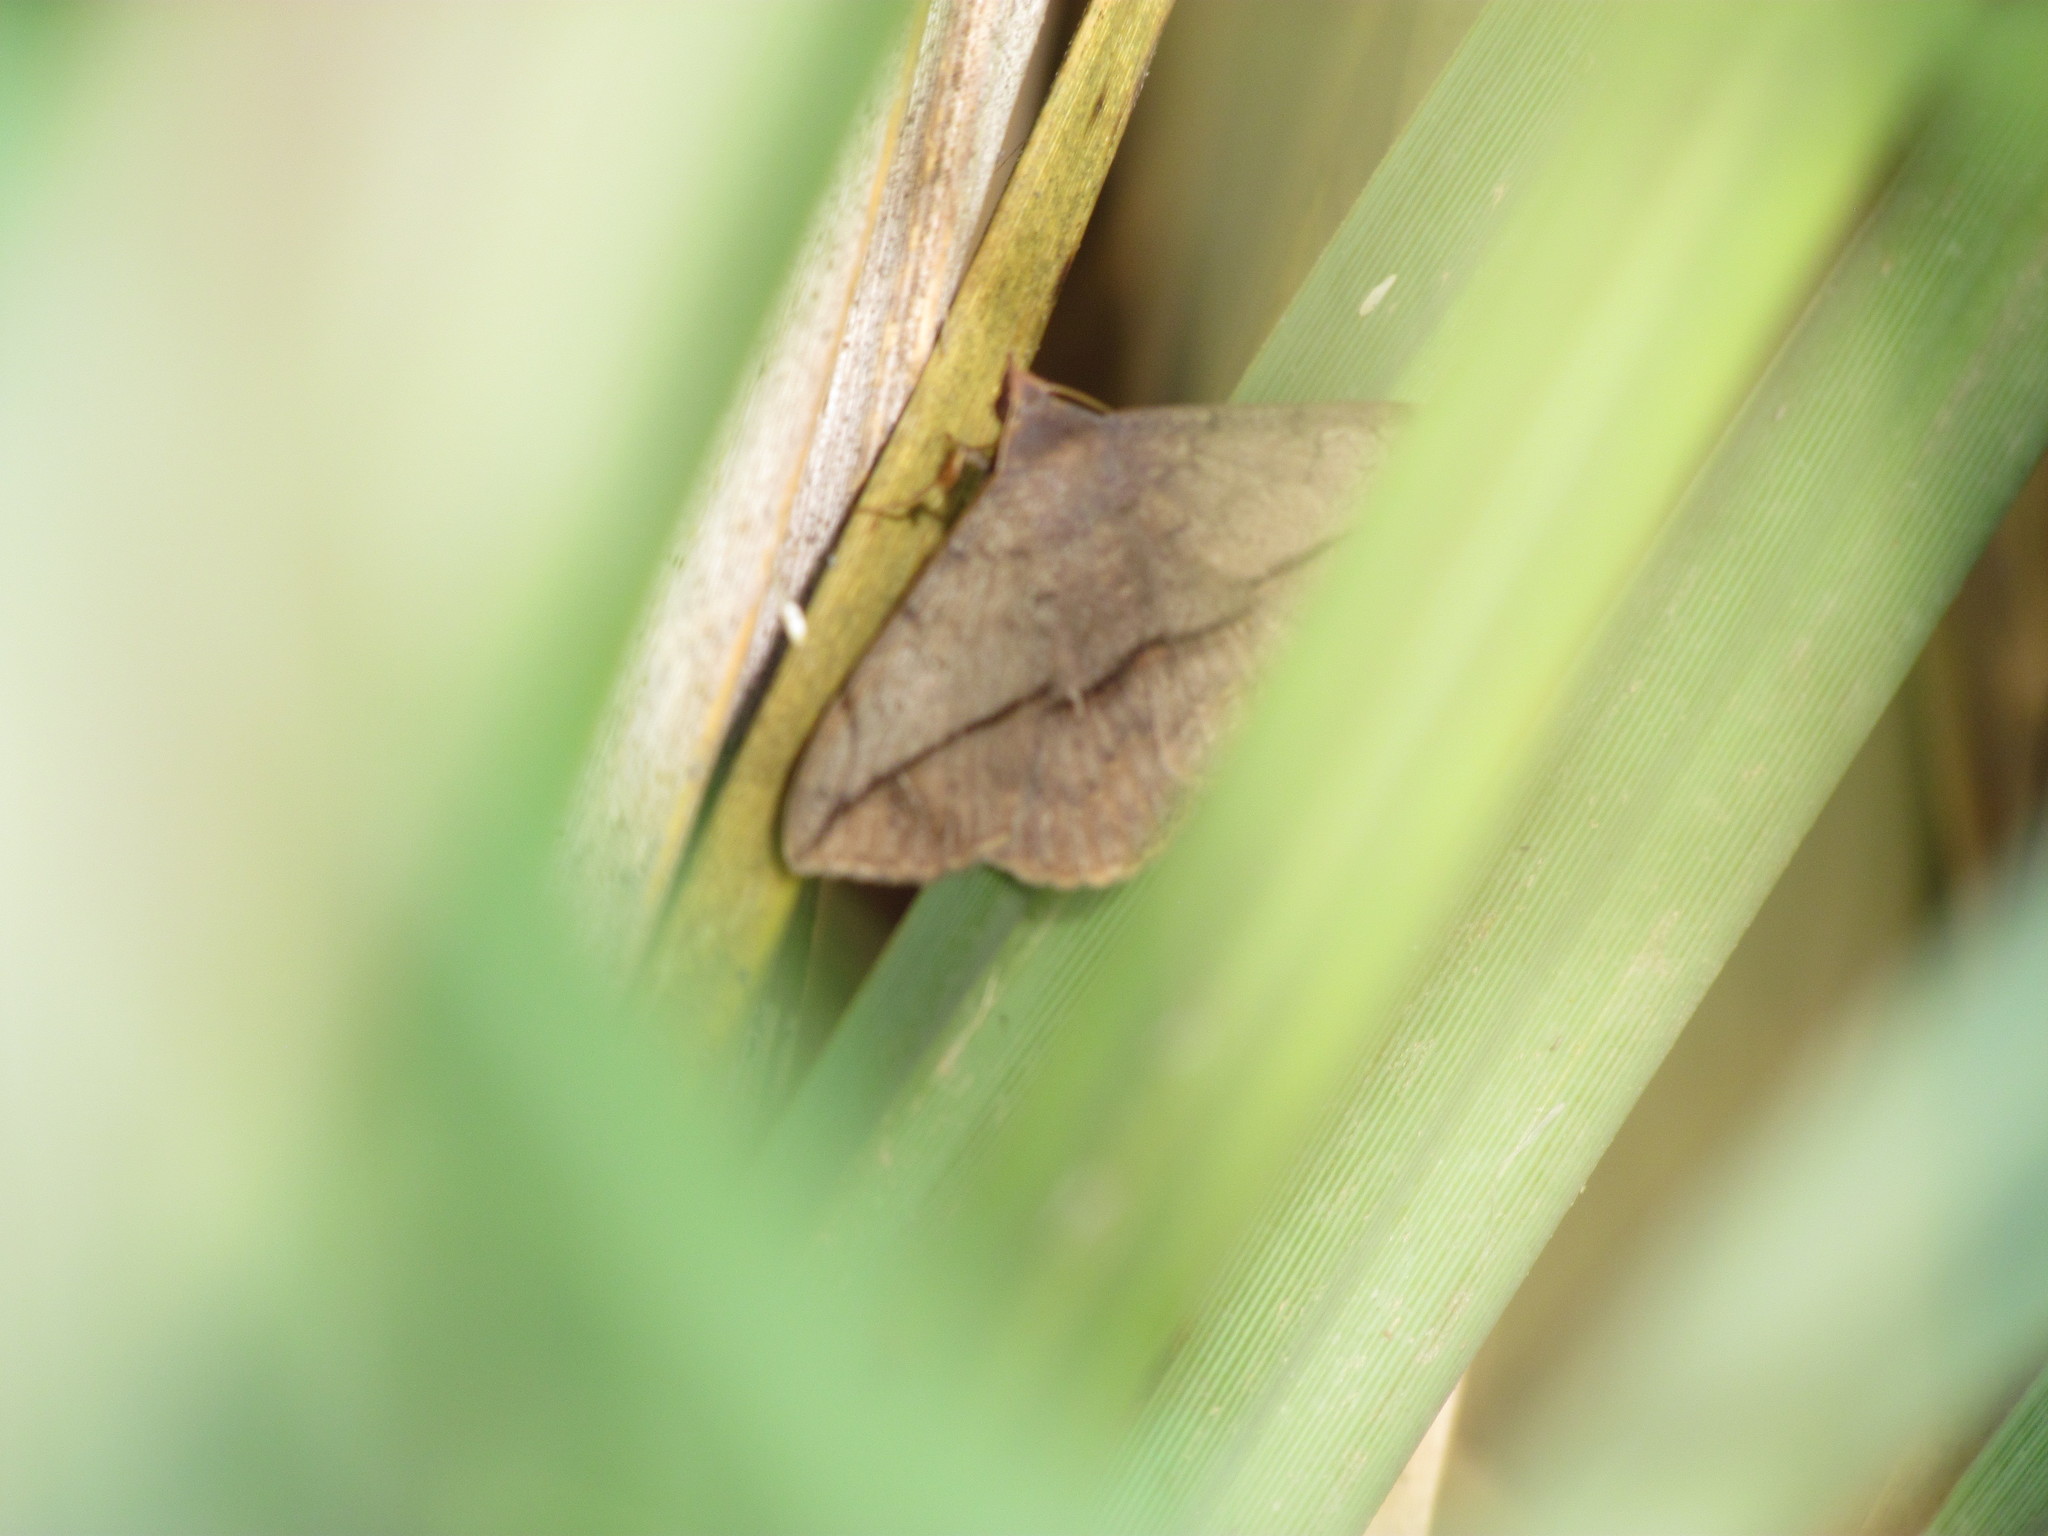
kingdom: Animalia
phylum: Arthropoda
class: Insecta
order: Lepidoptera
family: Erebidae
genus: Anticarsia
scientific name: Anticarsia gemmatalis
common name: Cutworm moth
